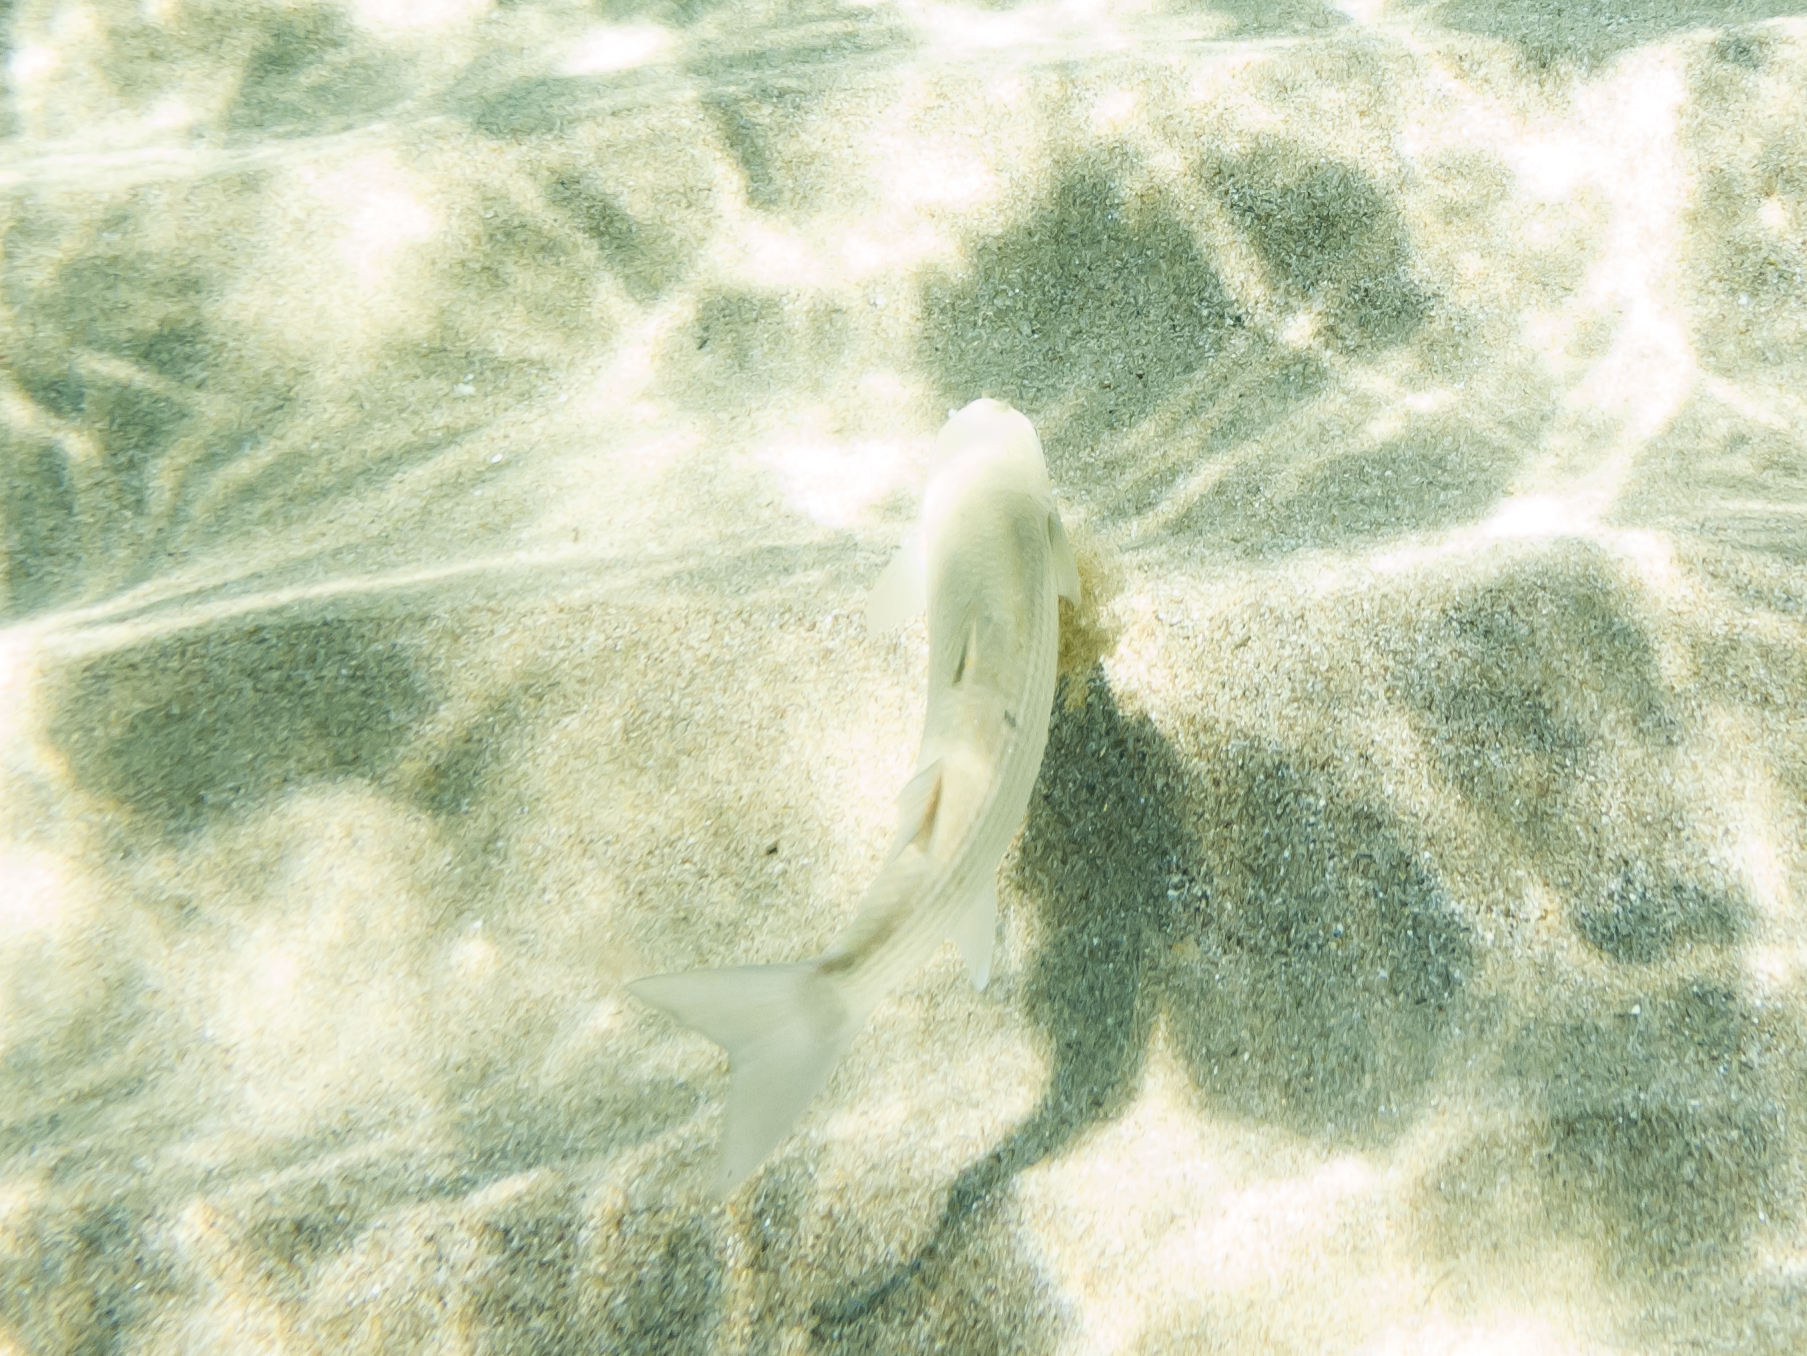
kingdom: Animalia
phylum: Chordata
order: Mugiliformes
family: Mugilidae
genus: Chelon
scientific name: Chelon
